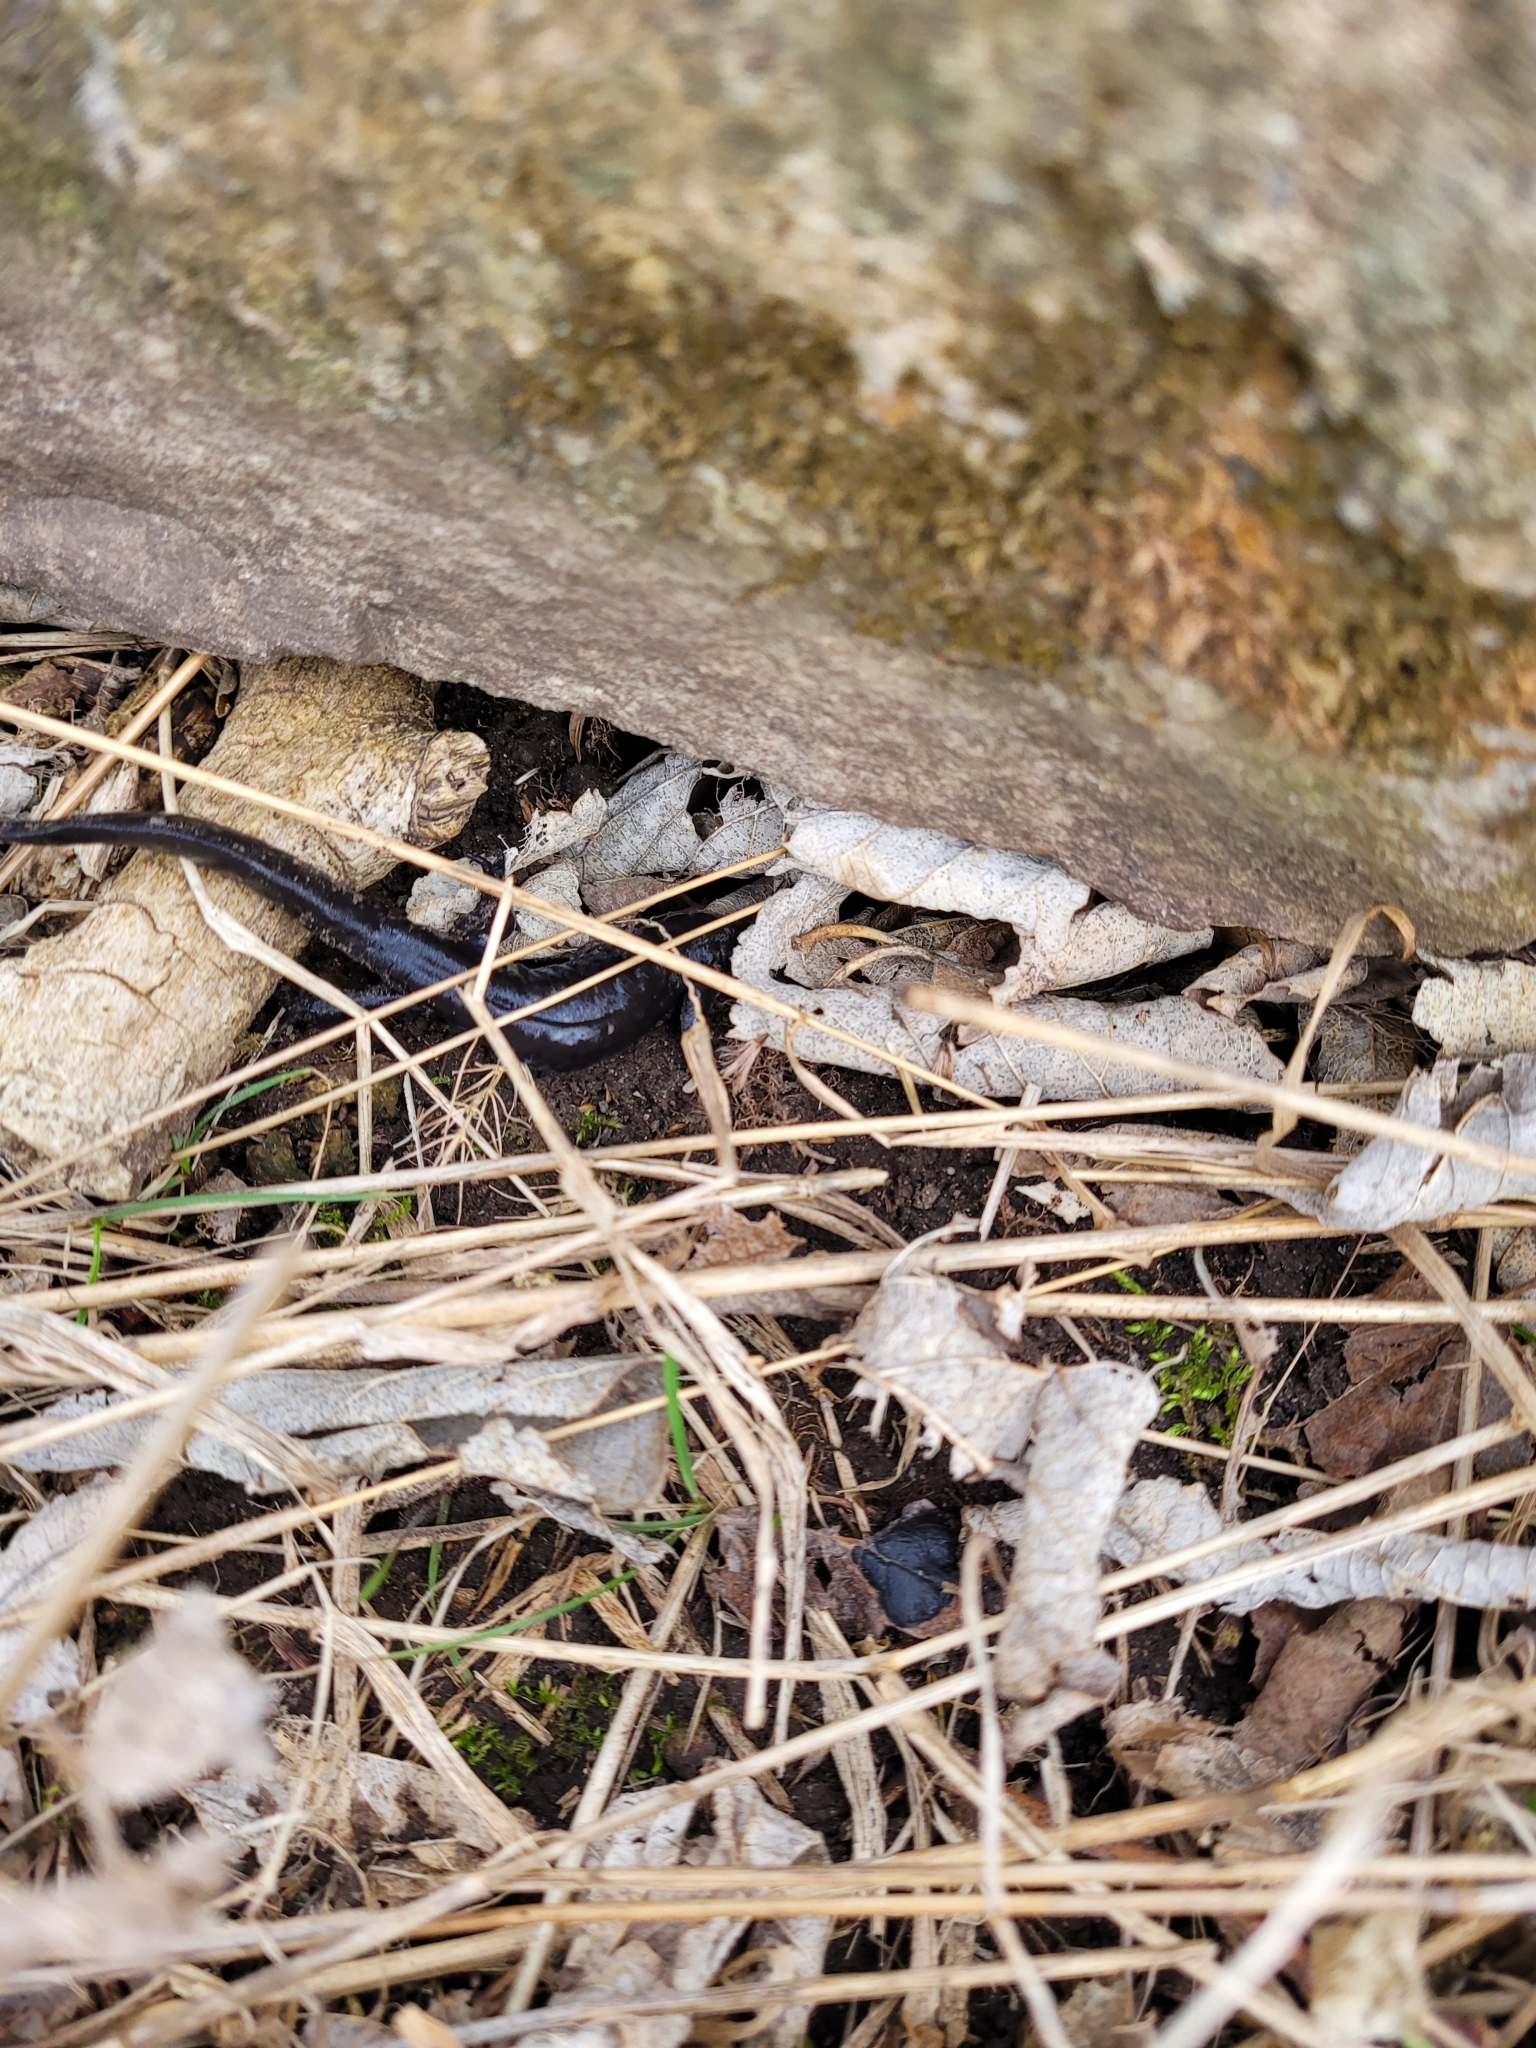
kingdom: Animalia
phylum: Chordata
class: Amphibia
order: Caudata
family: Ambystomatidae
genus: Ambystoma
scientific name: Ambystoma unisexual
